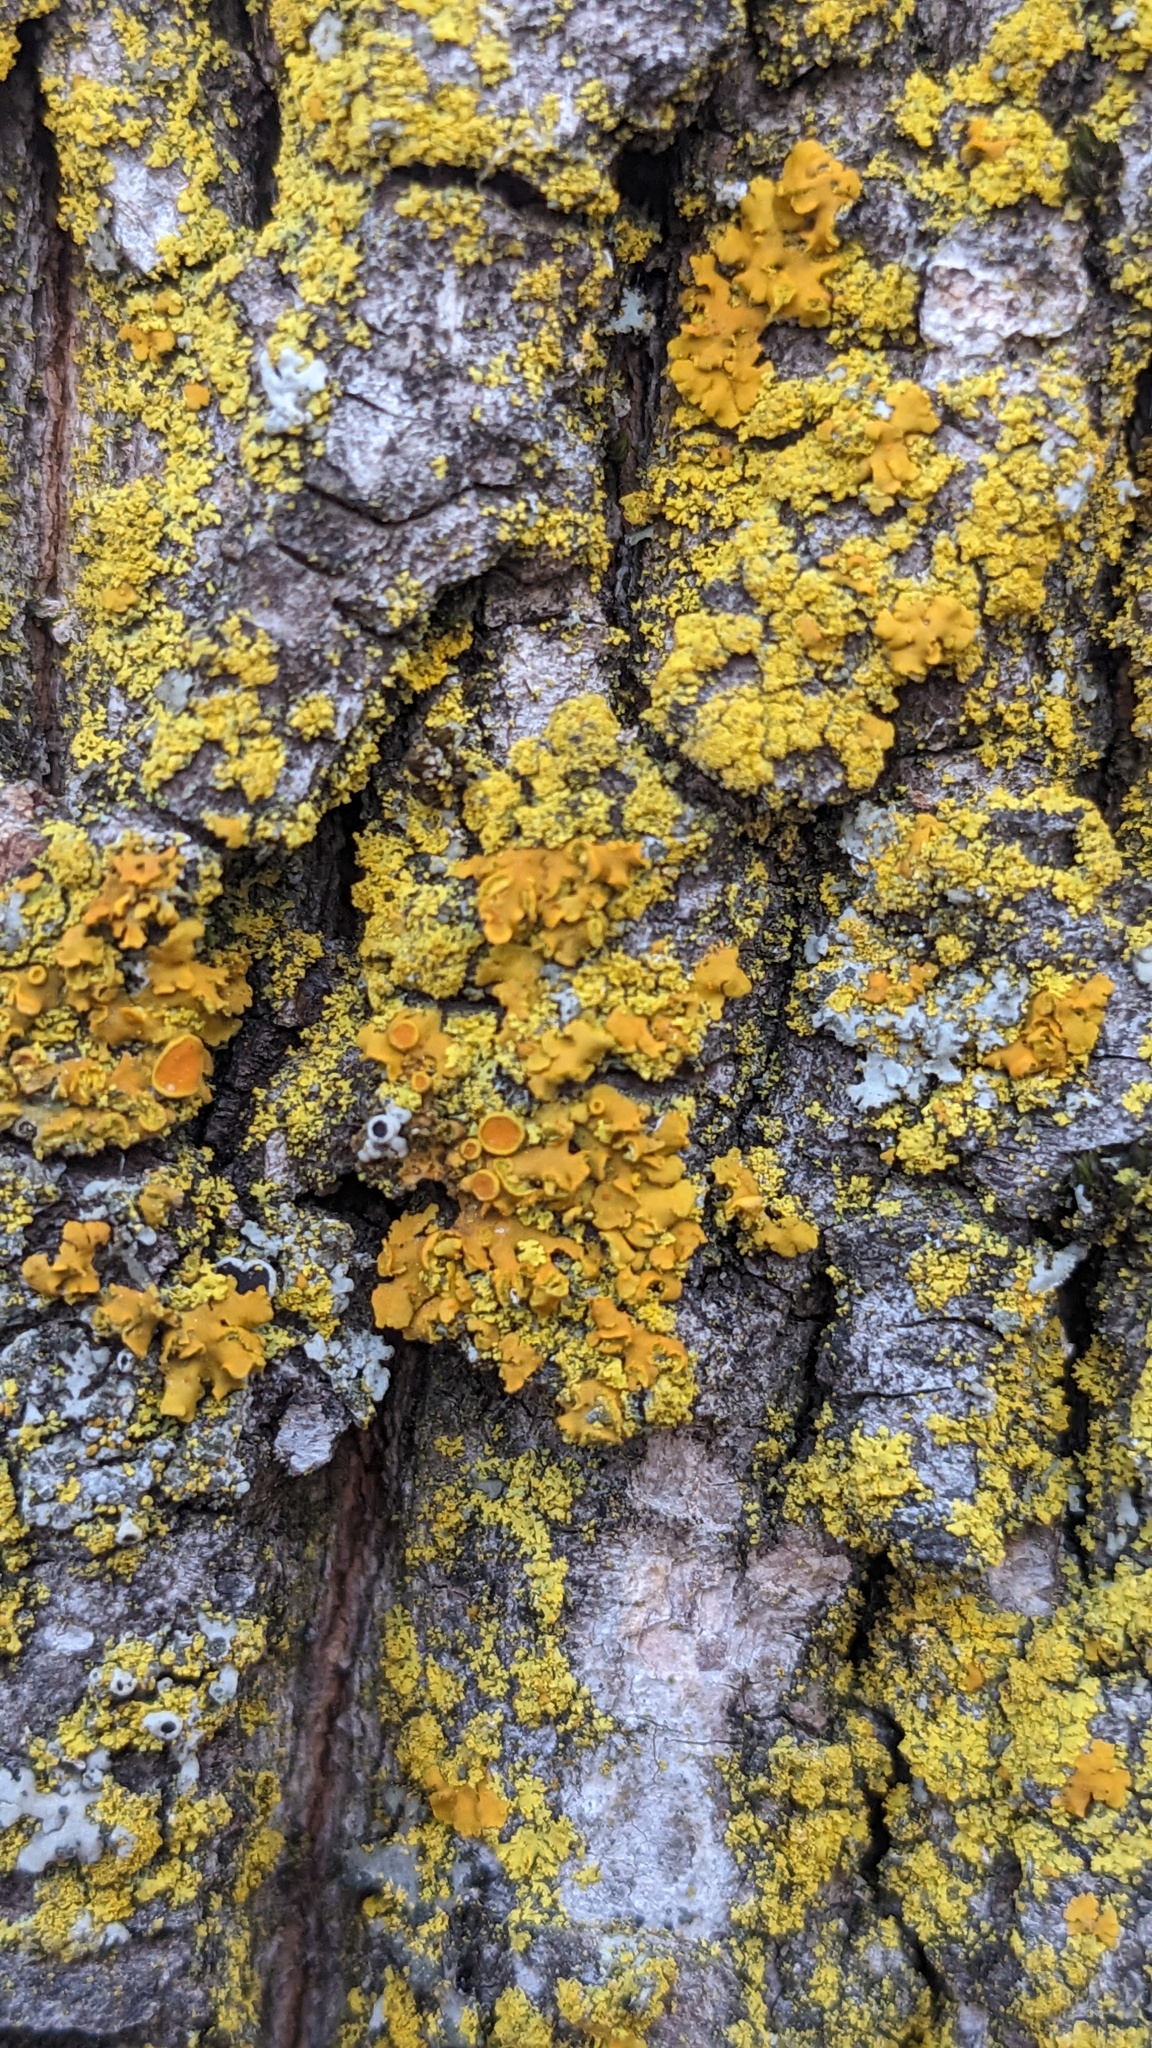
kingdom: Fungi
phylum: Ascomycota
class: Lecanoromycetes
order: Teloschistales
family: Teloschistaceae
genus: Oxneria
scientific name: Oxneria fallax
